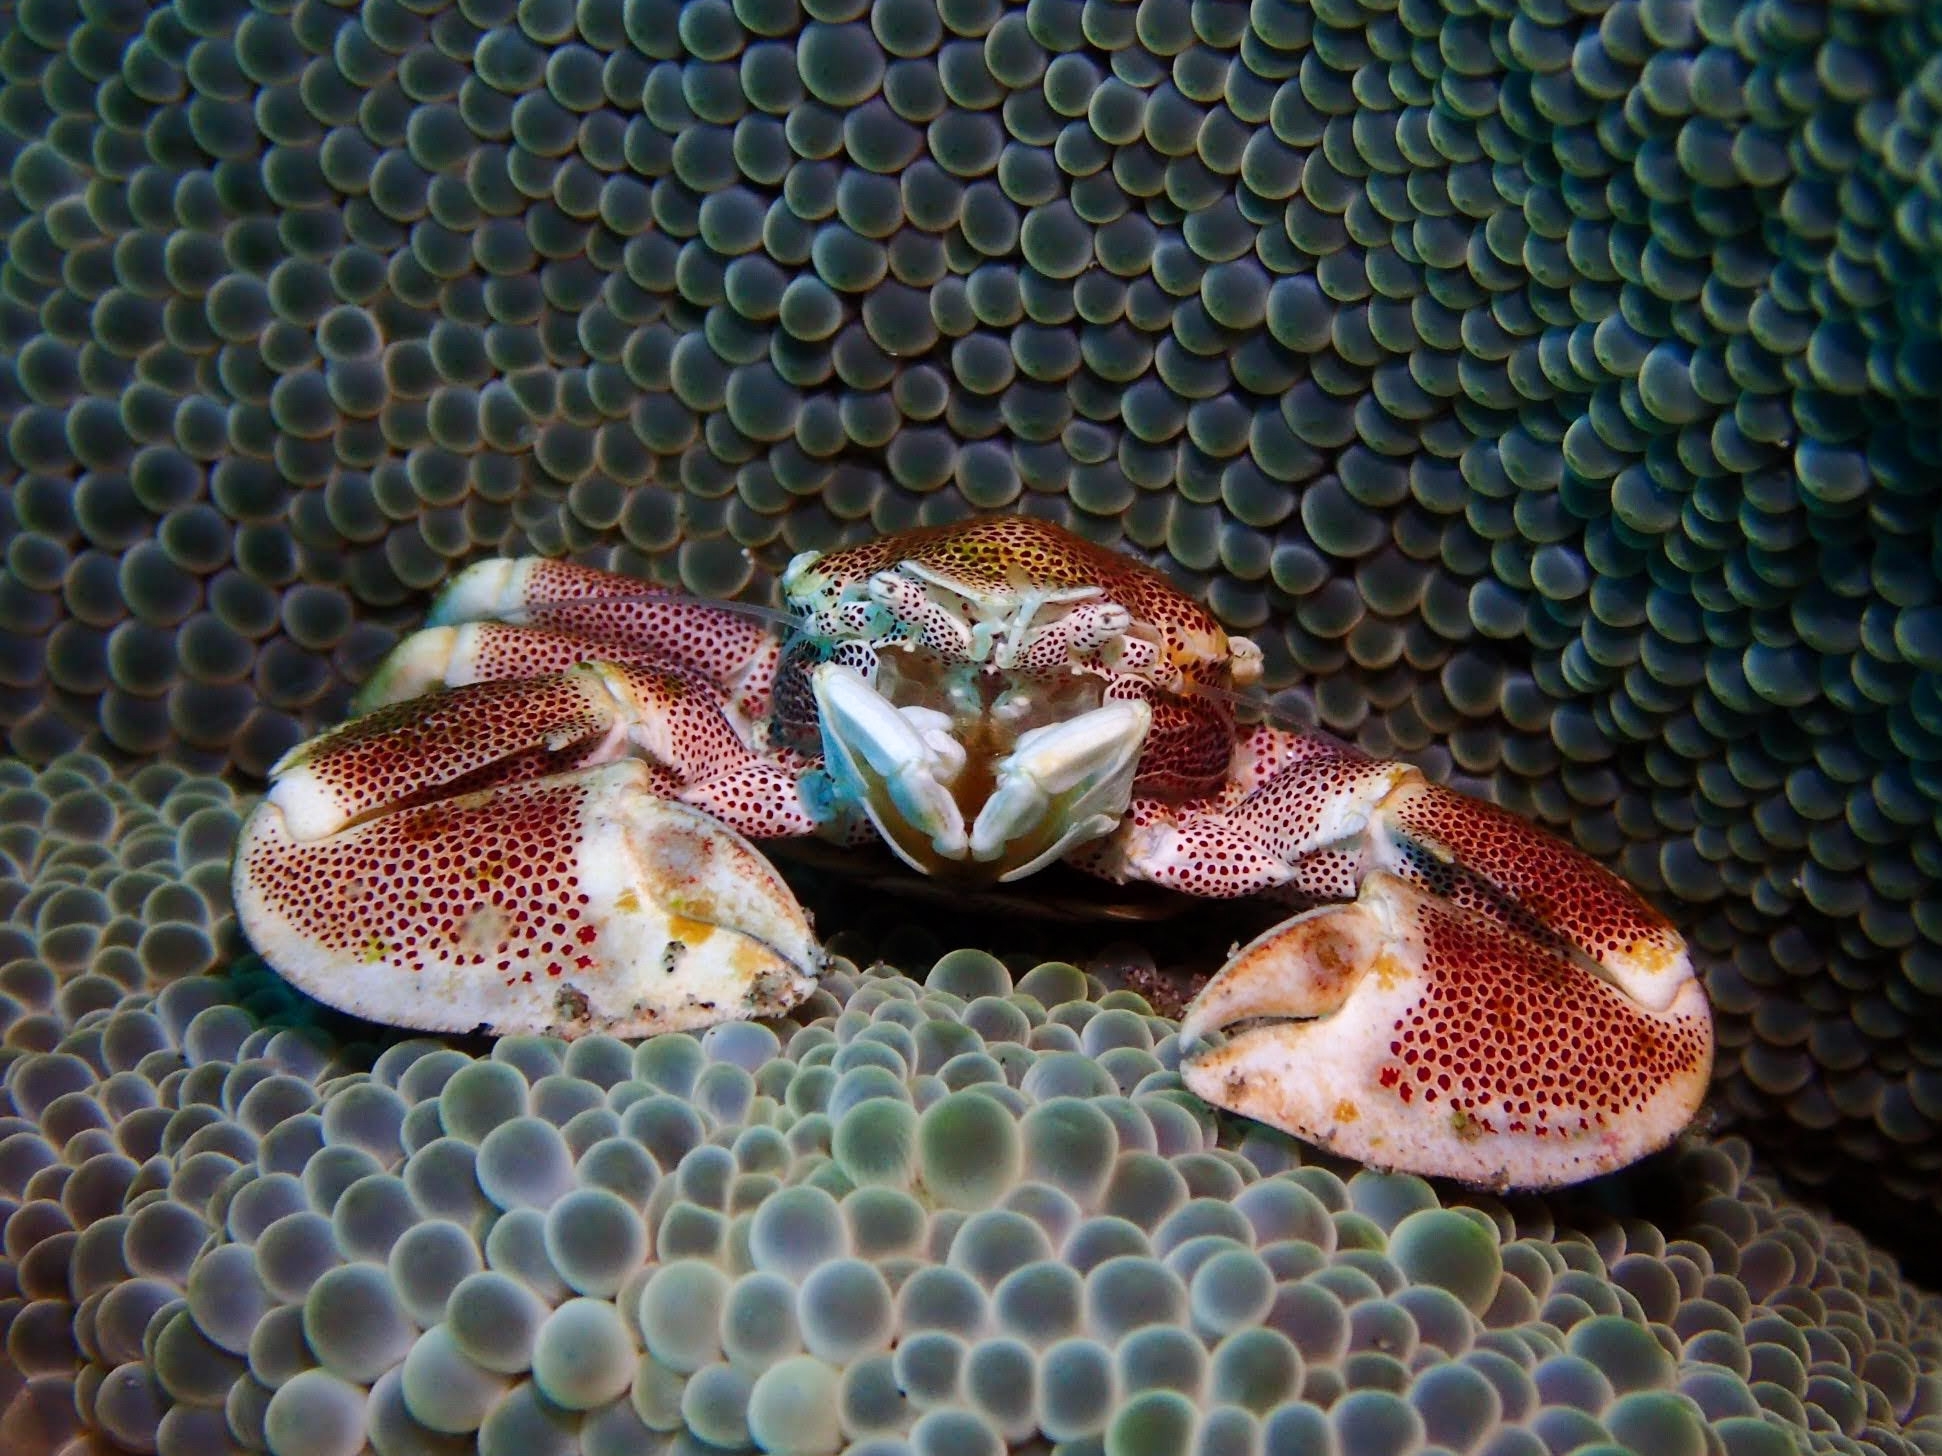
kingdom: Animalia
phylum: Arthropoda
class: Malacostraca
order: Decapoda
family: Porcellanidae
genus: Neopetrolisthes
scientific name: Neopetrolisthes maculatus
